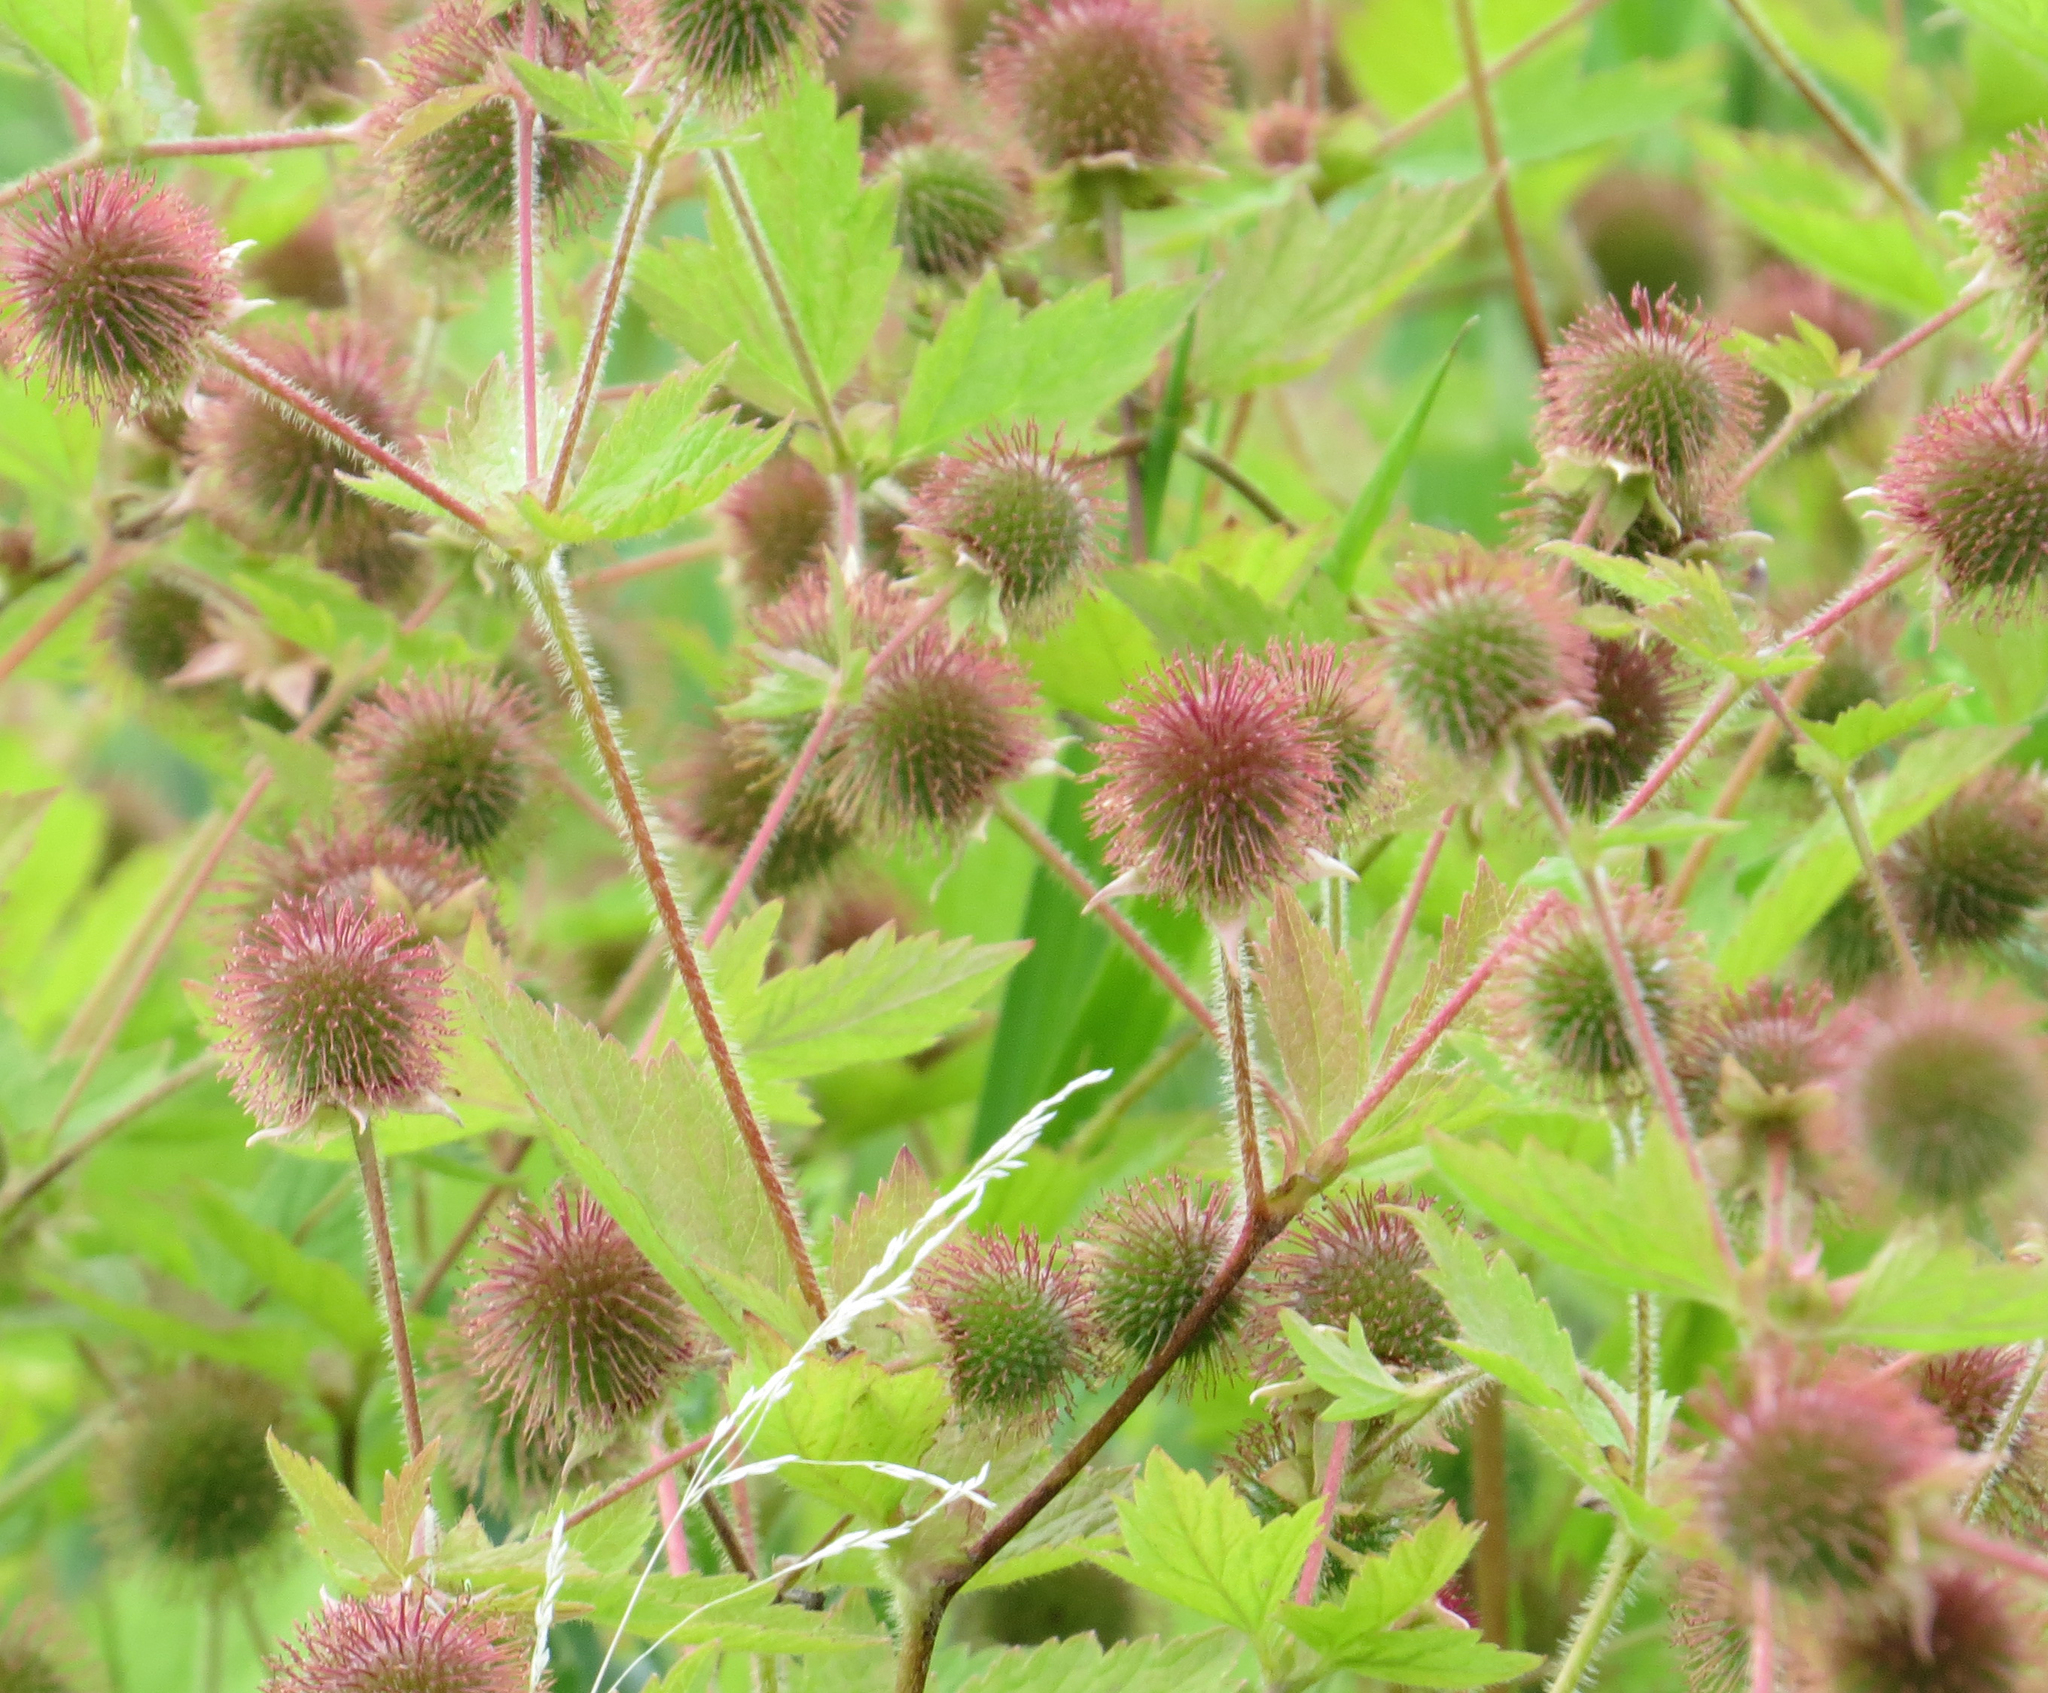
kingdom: Plantae
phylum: Tracheophyta
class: Magnoliopsida
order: Rosales
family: Rosaceae
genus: Geum
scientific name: Geum laciniatum
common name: Rough avens
